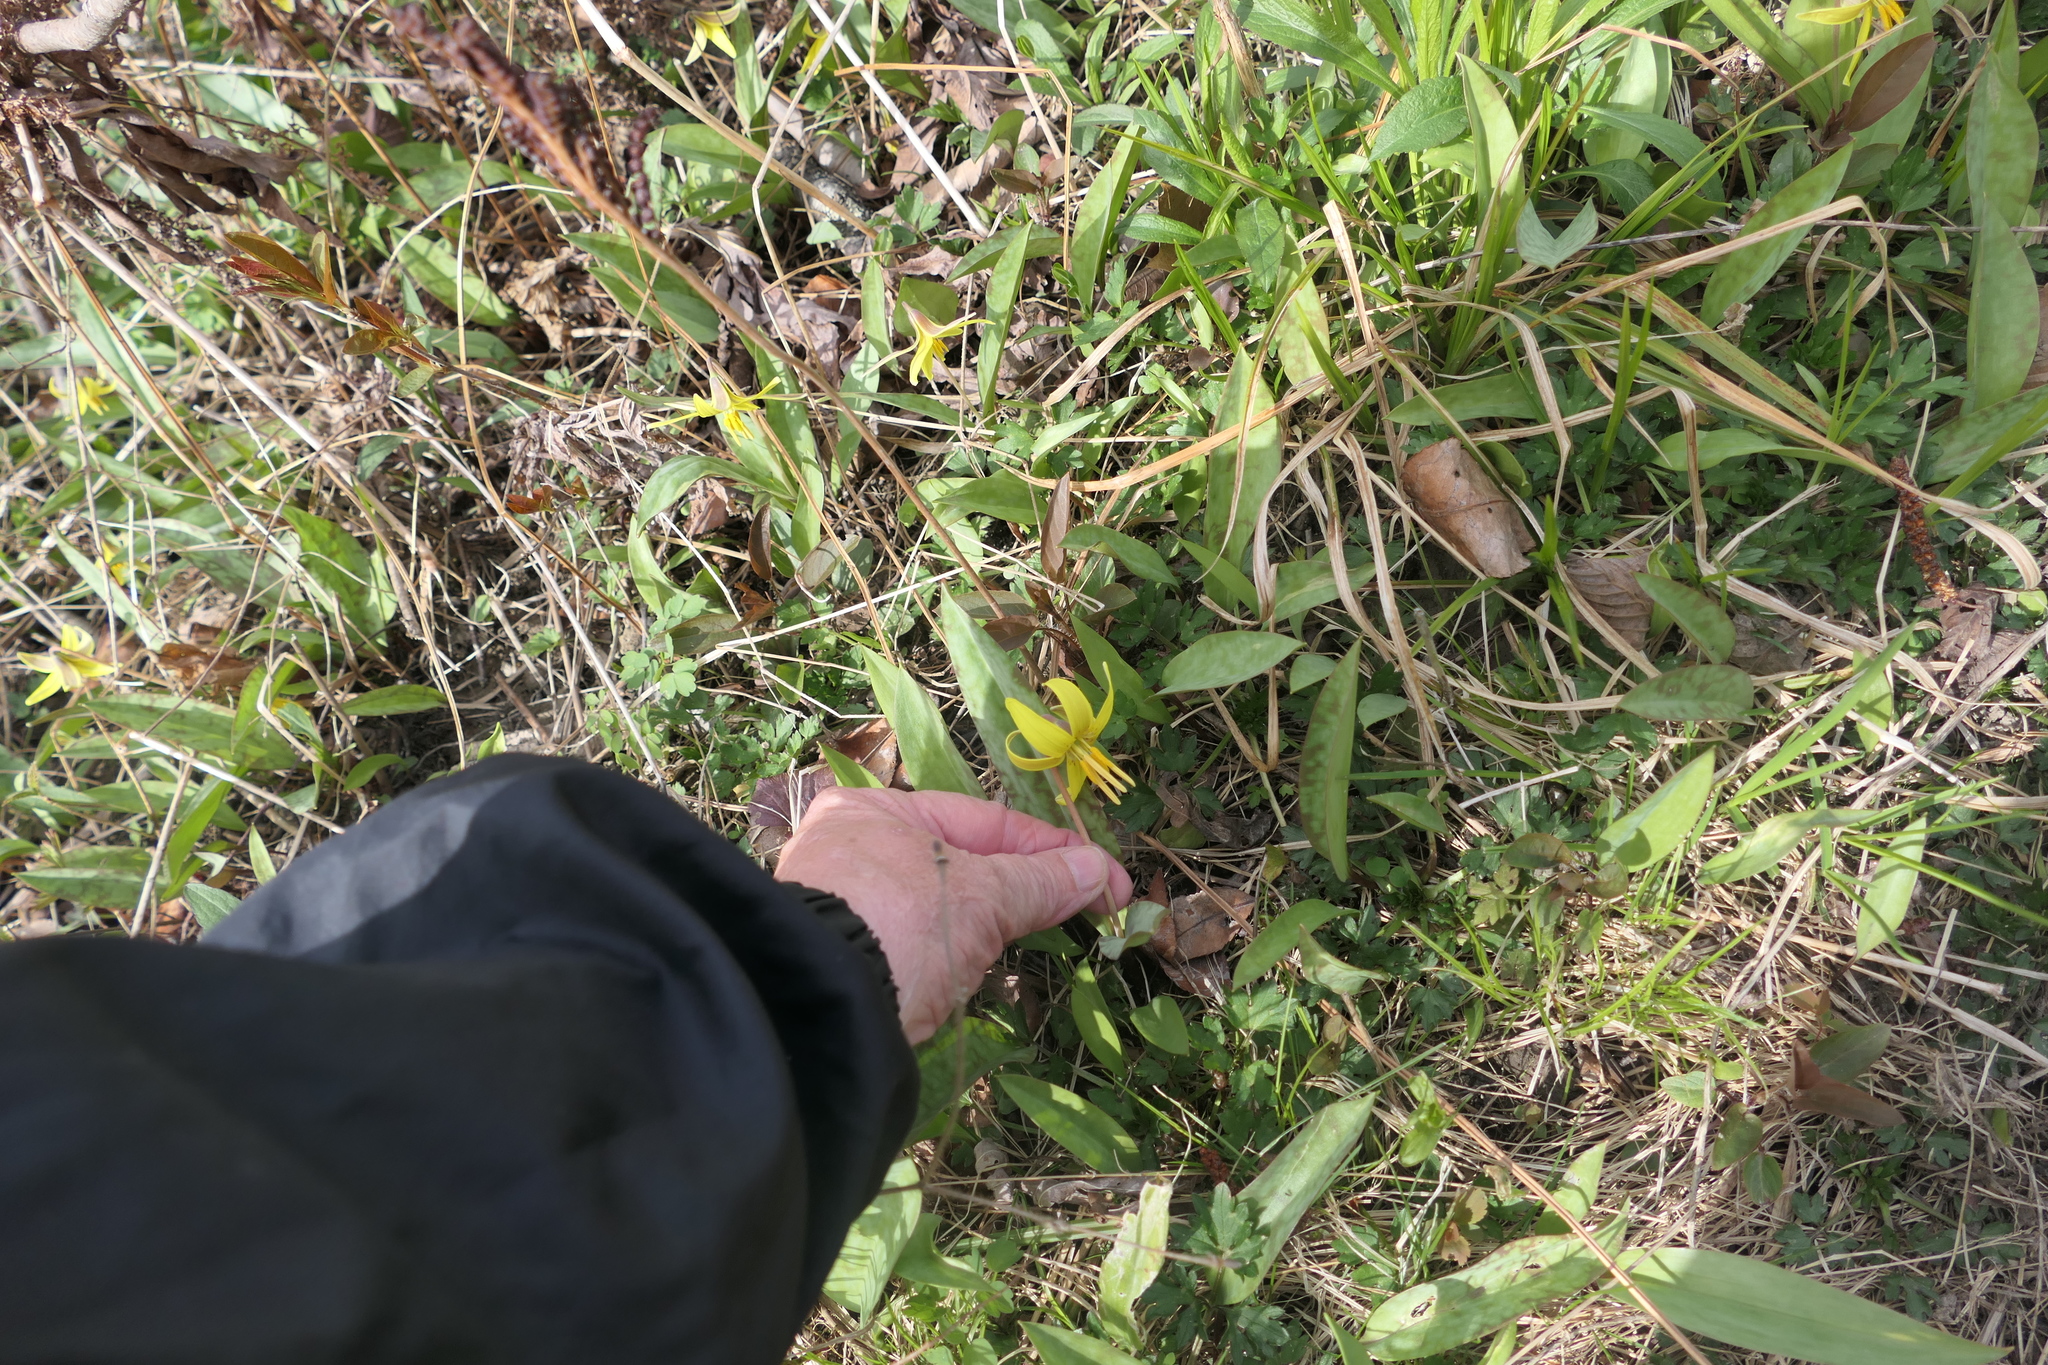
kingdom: Plantae
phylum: Tracheophyta
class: Liliopsida
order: Liliales
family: Liliaceae
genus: Erythronium
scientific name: Erythronium americanum
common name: Yellow adder's-tongue
